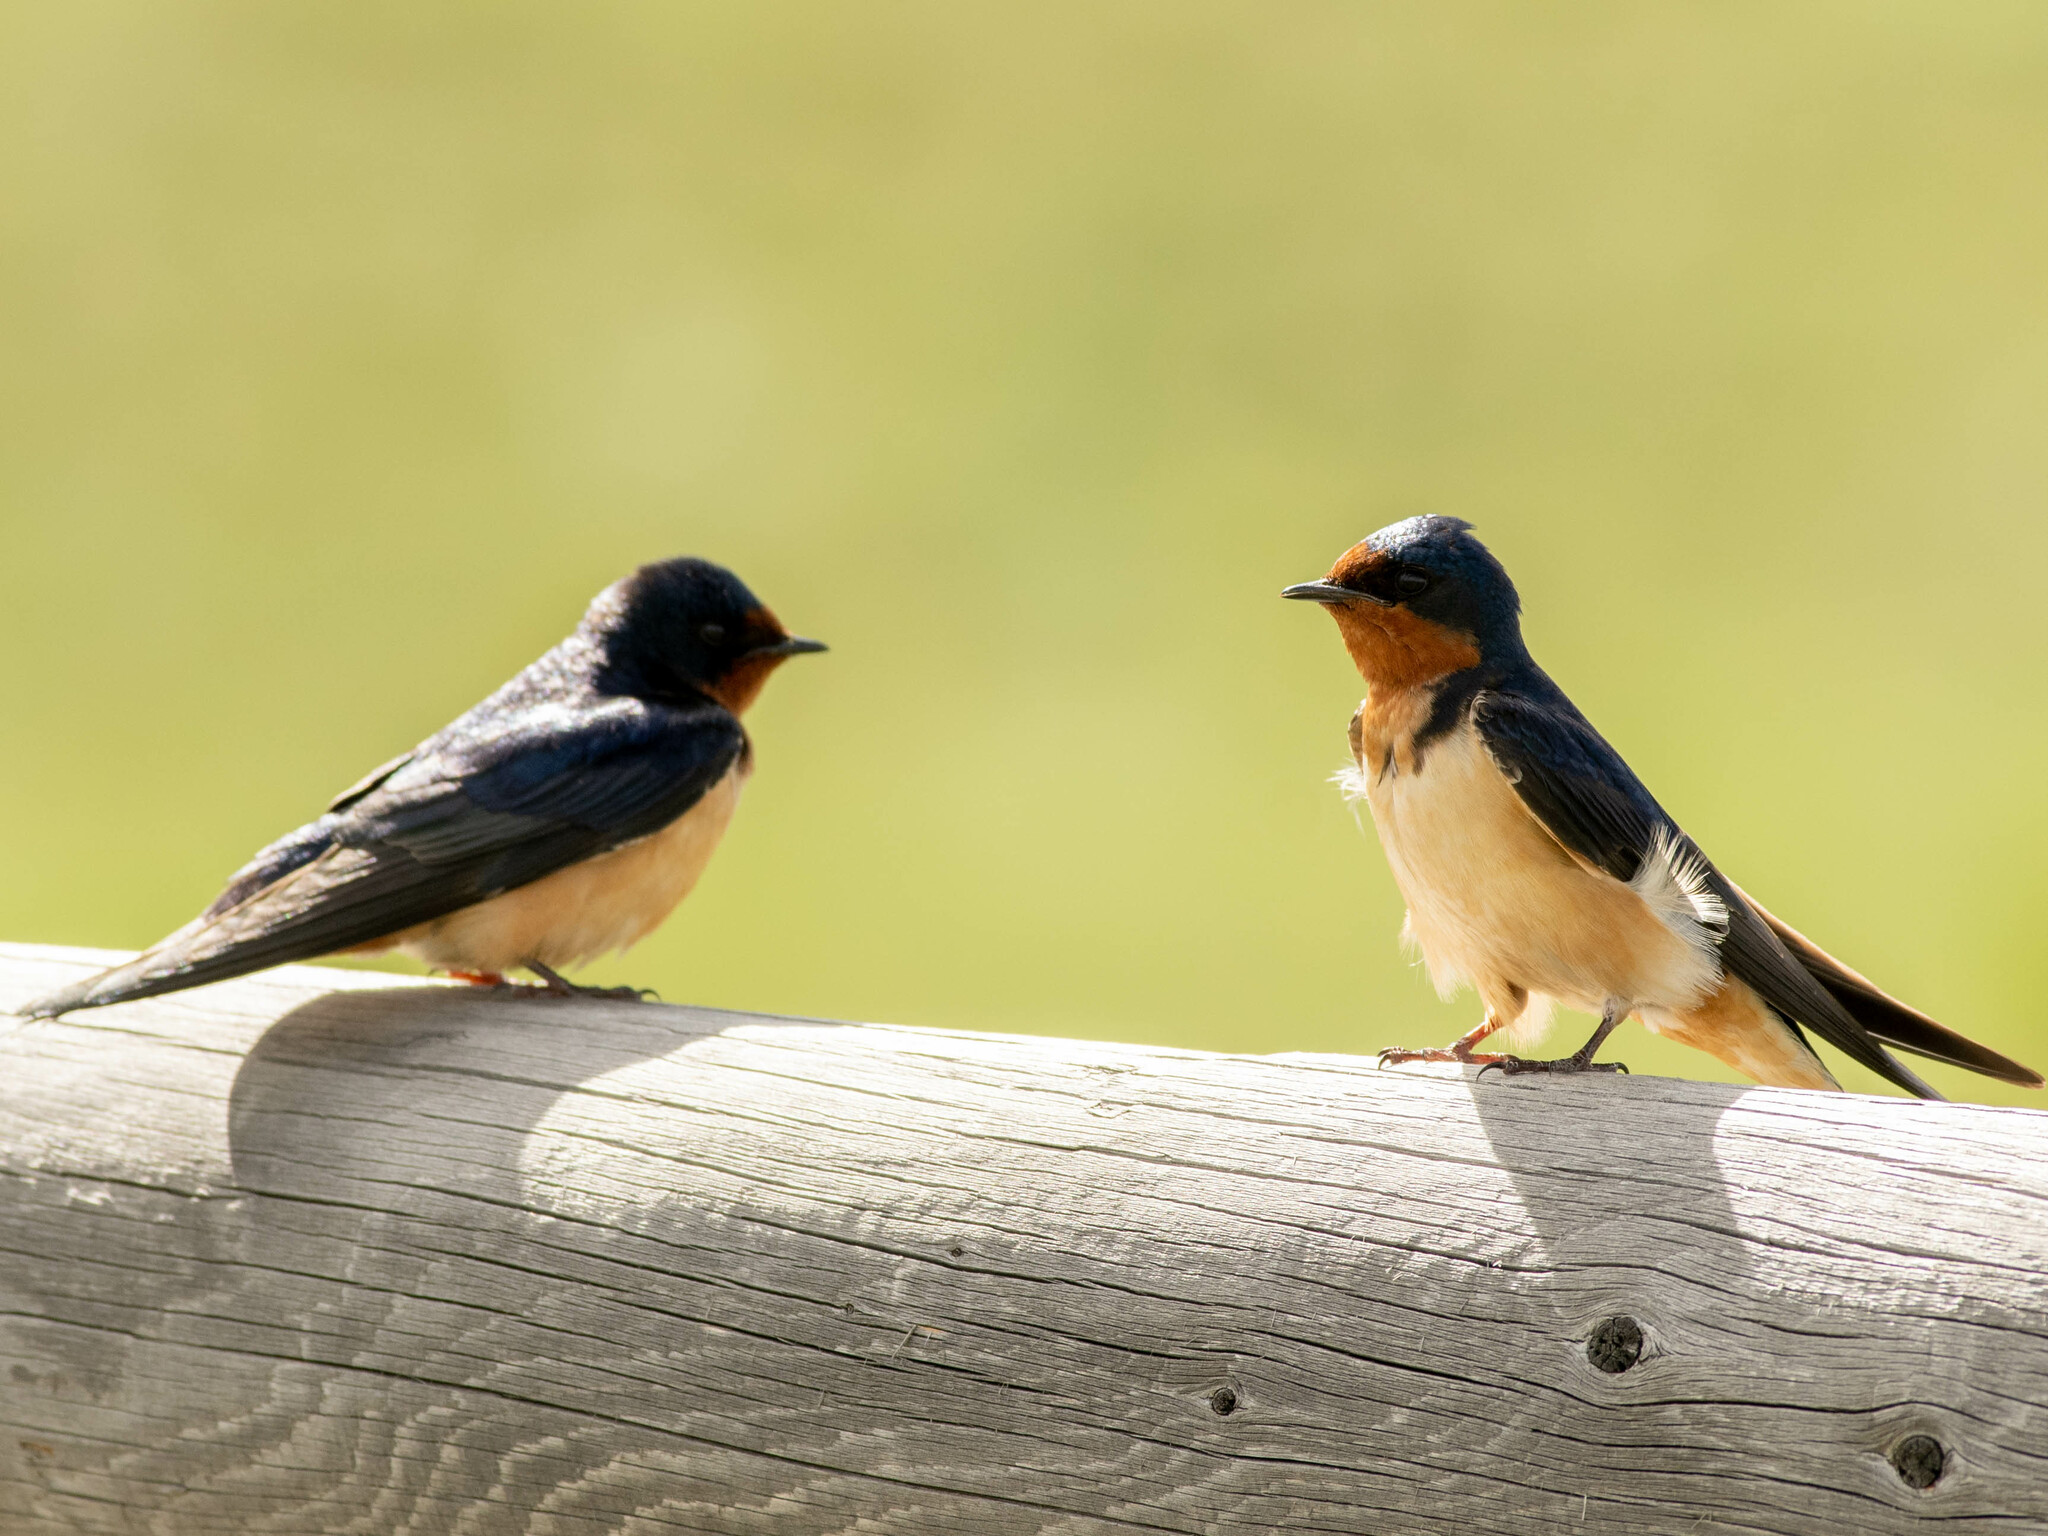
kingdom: Animalia
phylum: Chordata
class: Aves
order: Passeriformes
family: Hirundinidae
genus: Hirundo
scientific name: Hirundo rustica
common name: Barn swallow
